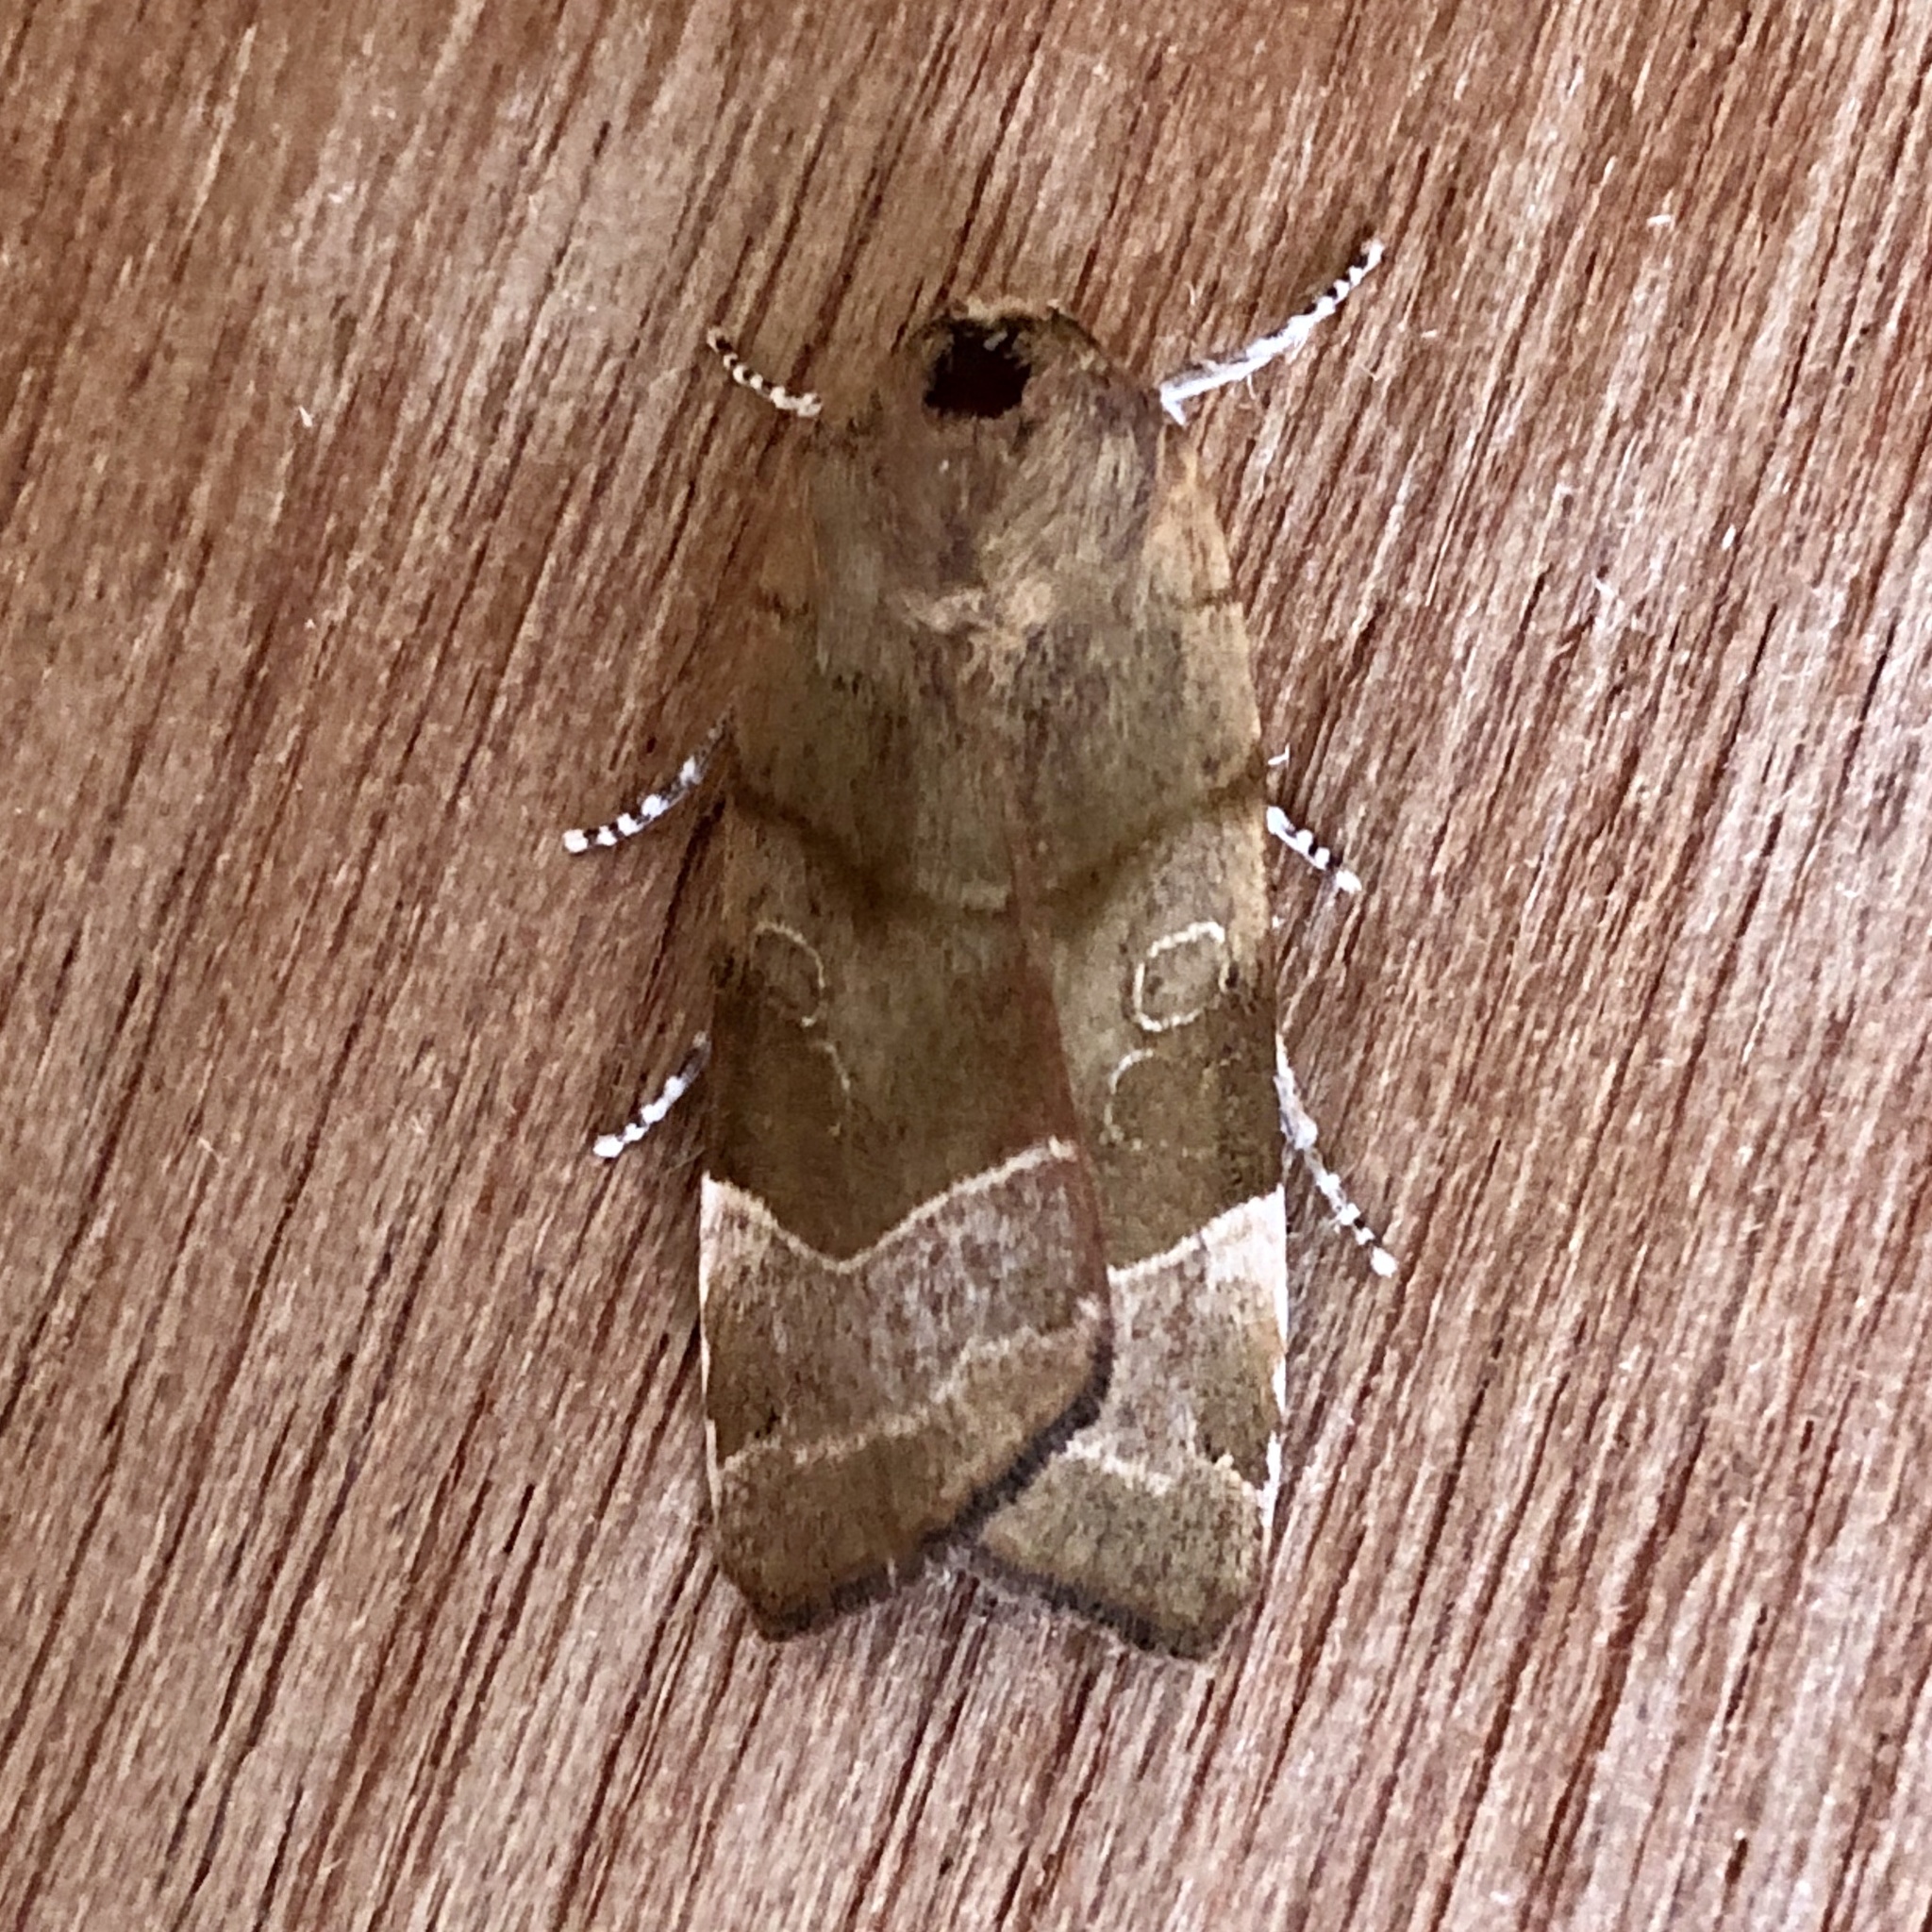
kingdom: Animalia
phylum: Arthropoda
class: Insecta
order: Lepidoptera
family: Noctuidae
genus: Noctua
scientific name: Noctua fimbriata
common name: Broad-bordered yellow underwing
